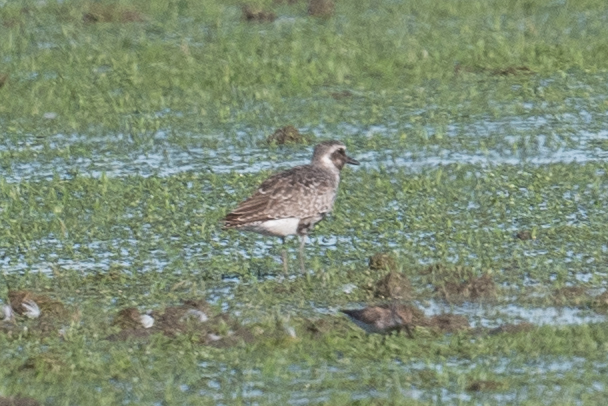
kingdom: Animalia
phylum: Chordata
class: Aves
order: Charadriiformes
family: Charadriidae
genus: Pluvialis
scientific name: Pluvialis squatarola
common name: Grey plover
